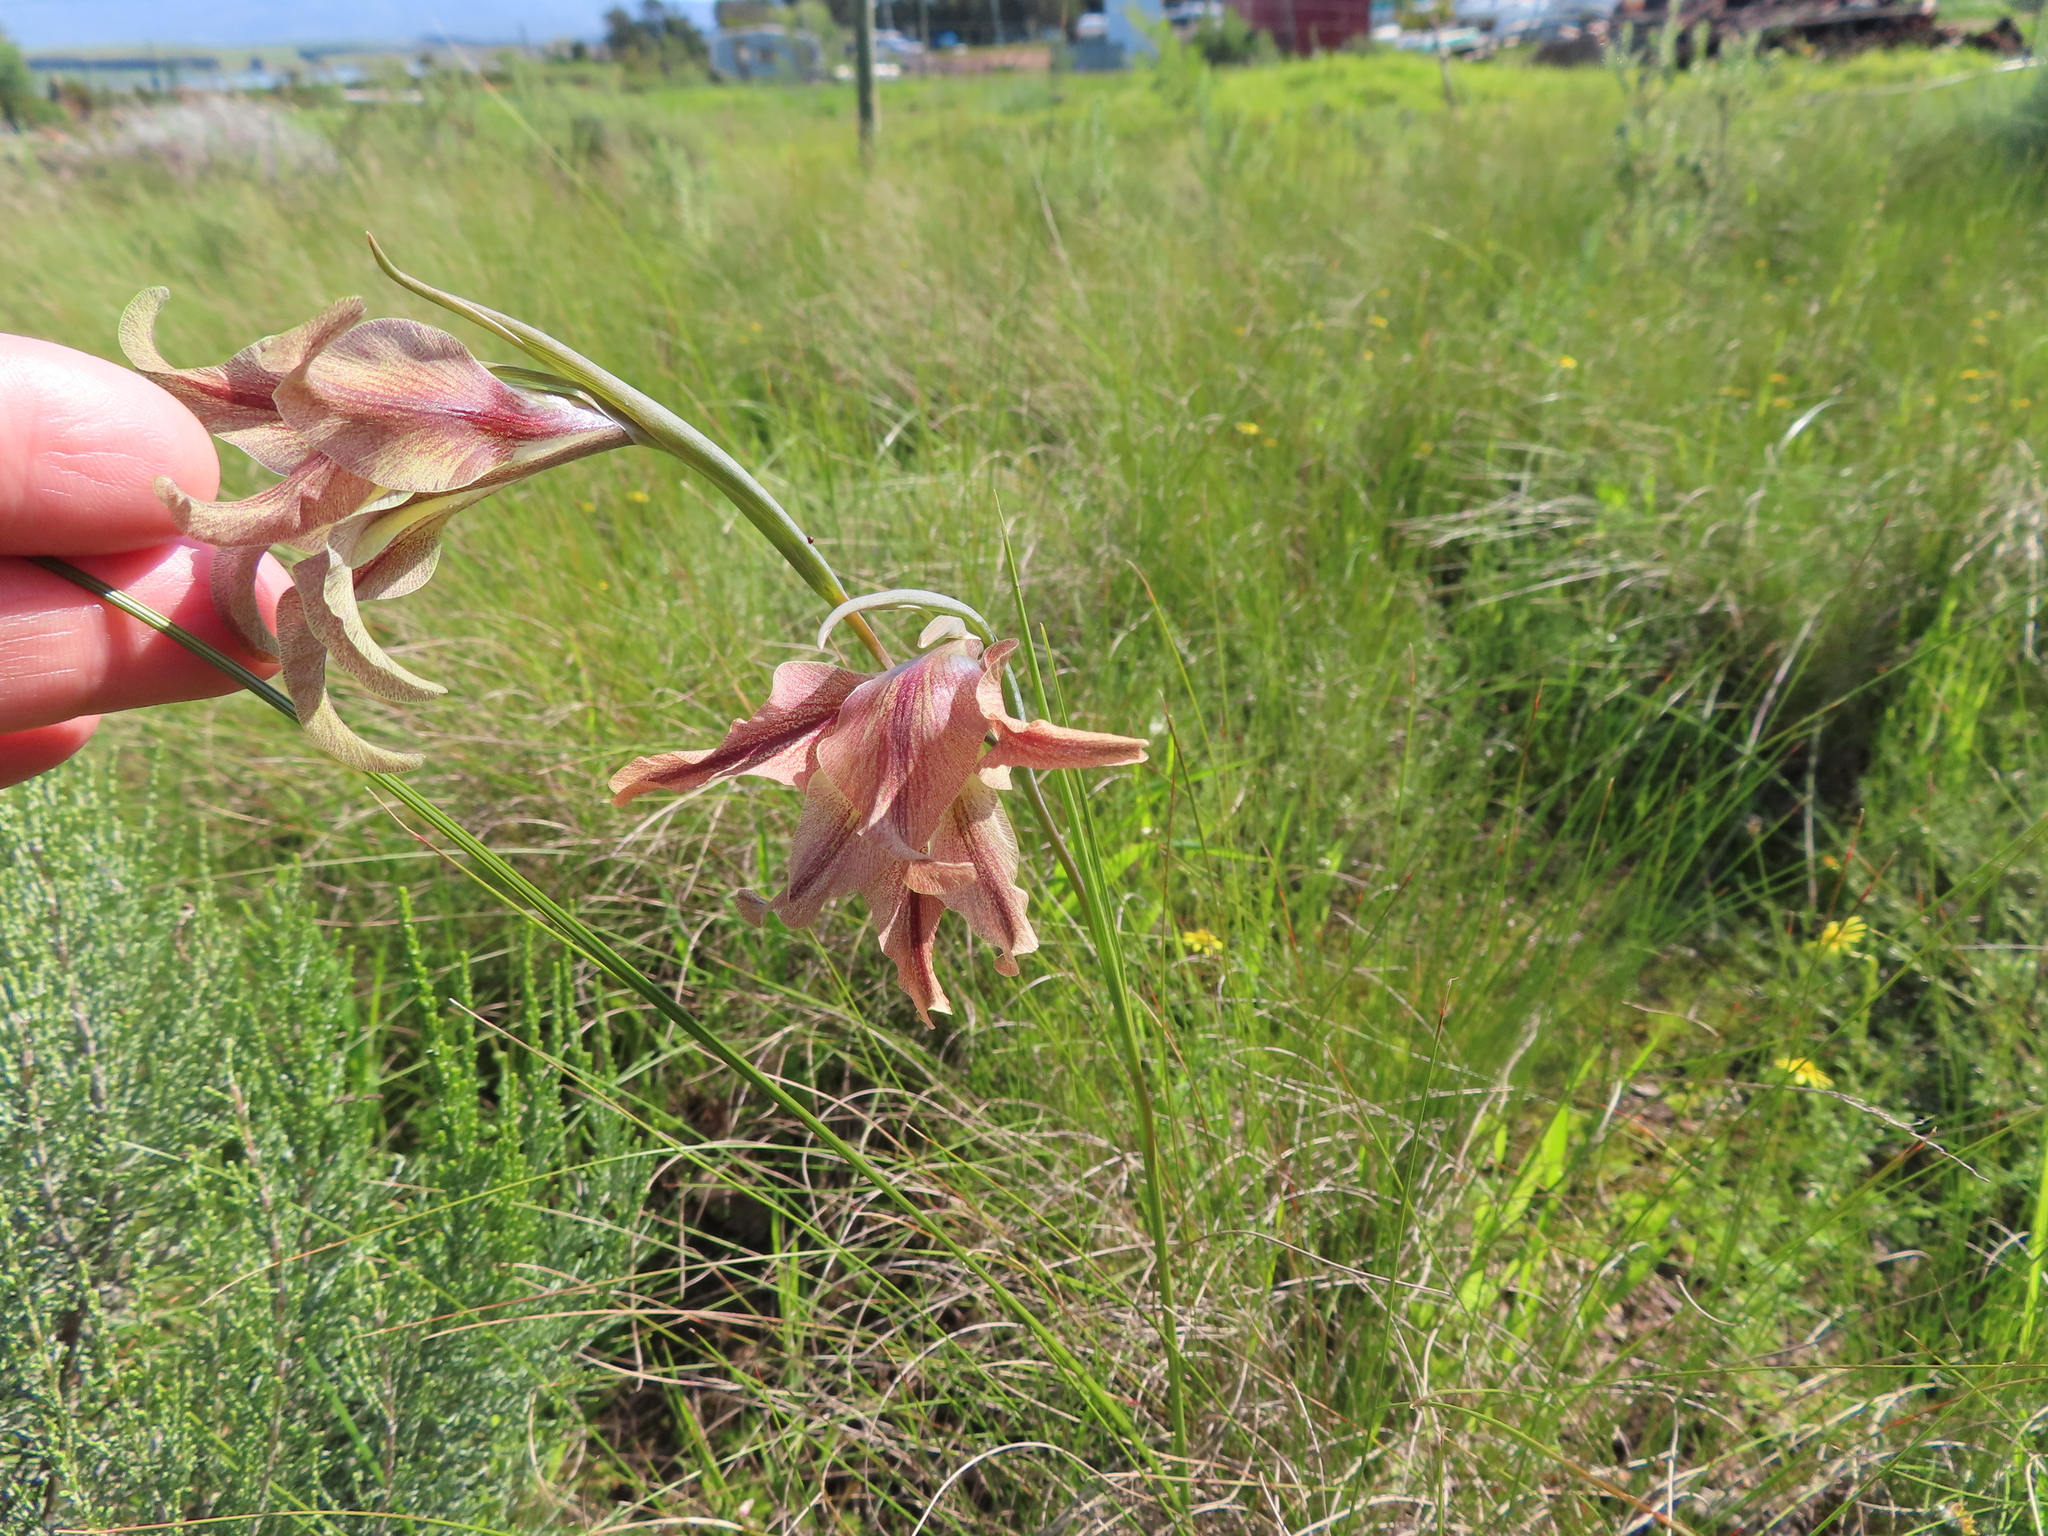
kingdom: Plantae
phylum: Tracheophyta
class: Liliopsida
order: Asparagales
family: Iridaceae
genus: Gladiolus
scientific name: Gladiolus liliaceus
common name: Large brown afrikaner
